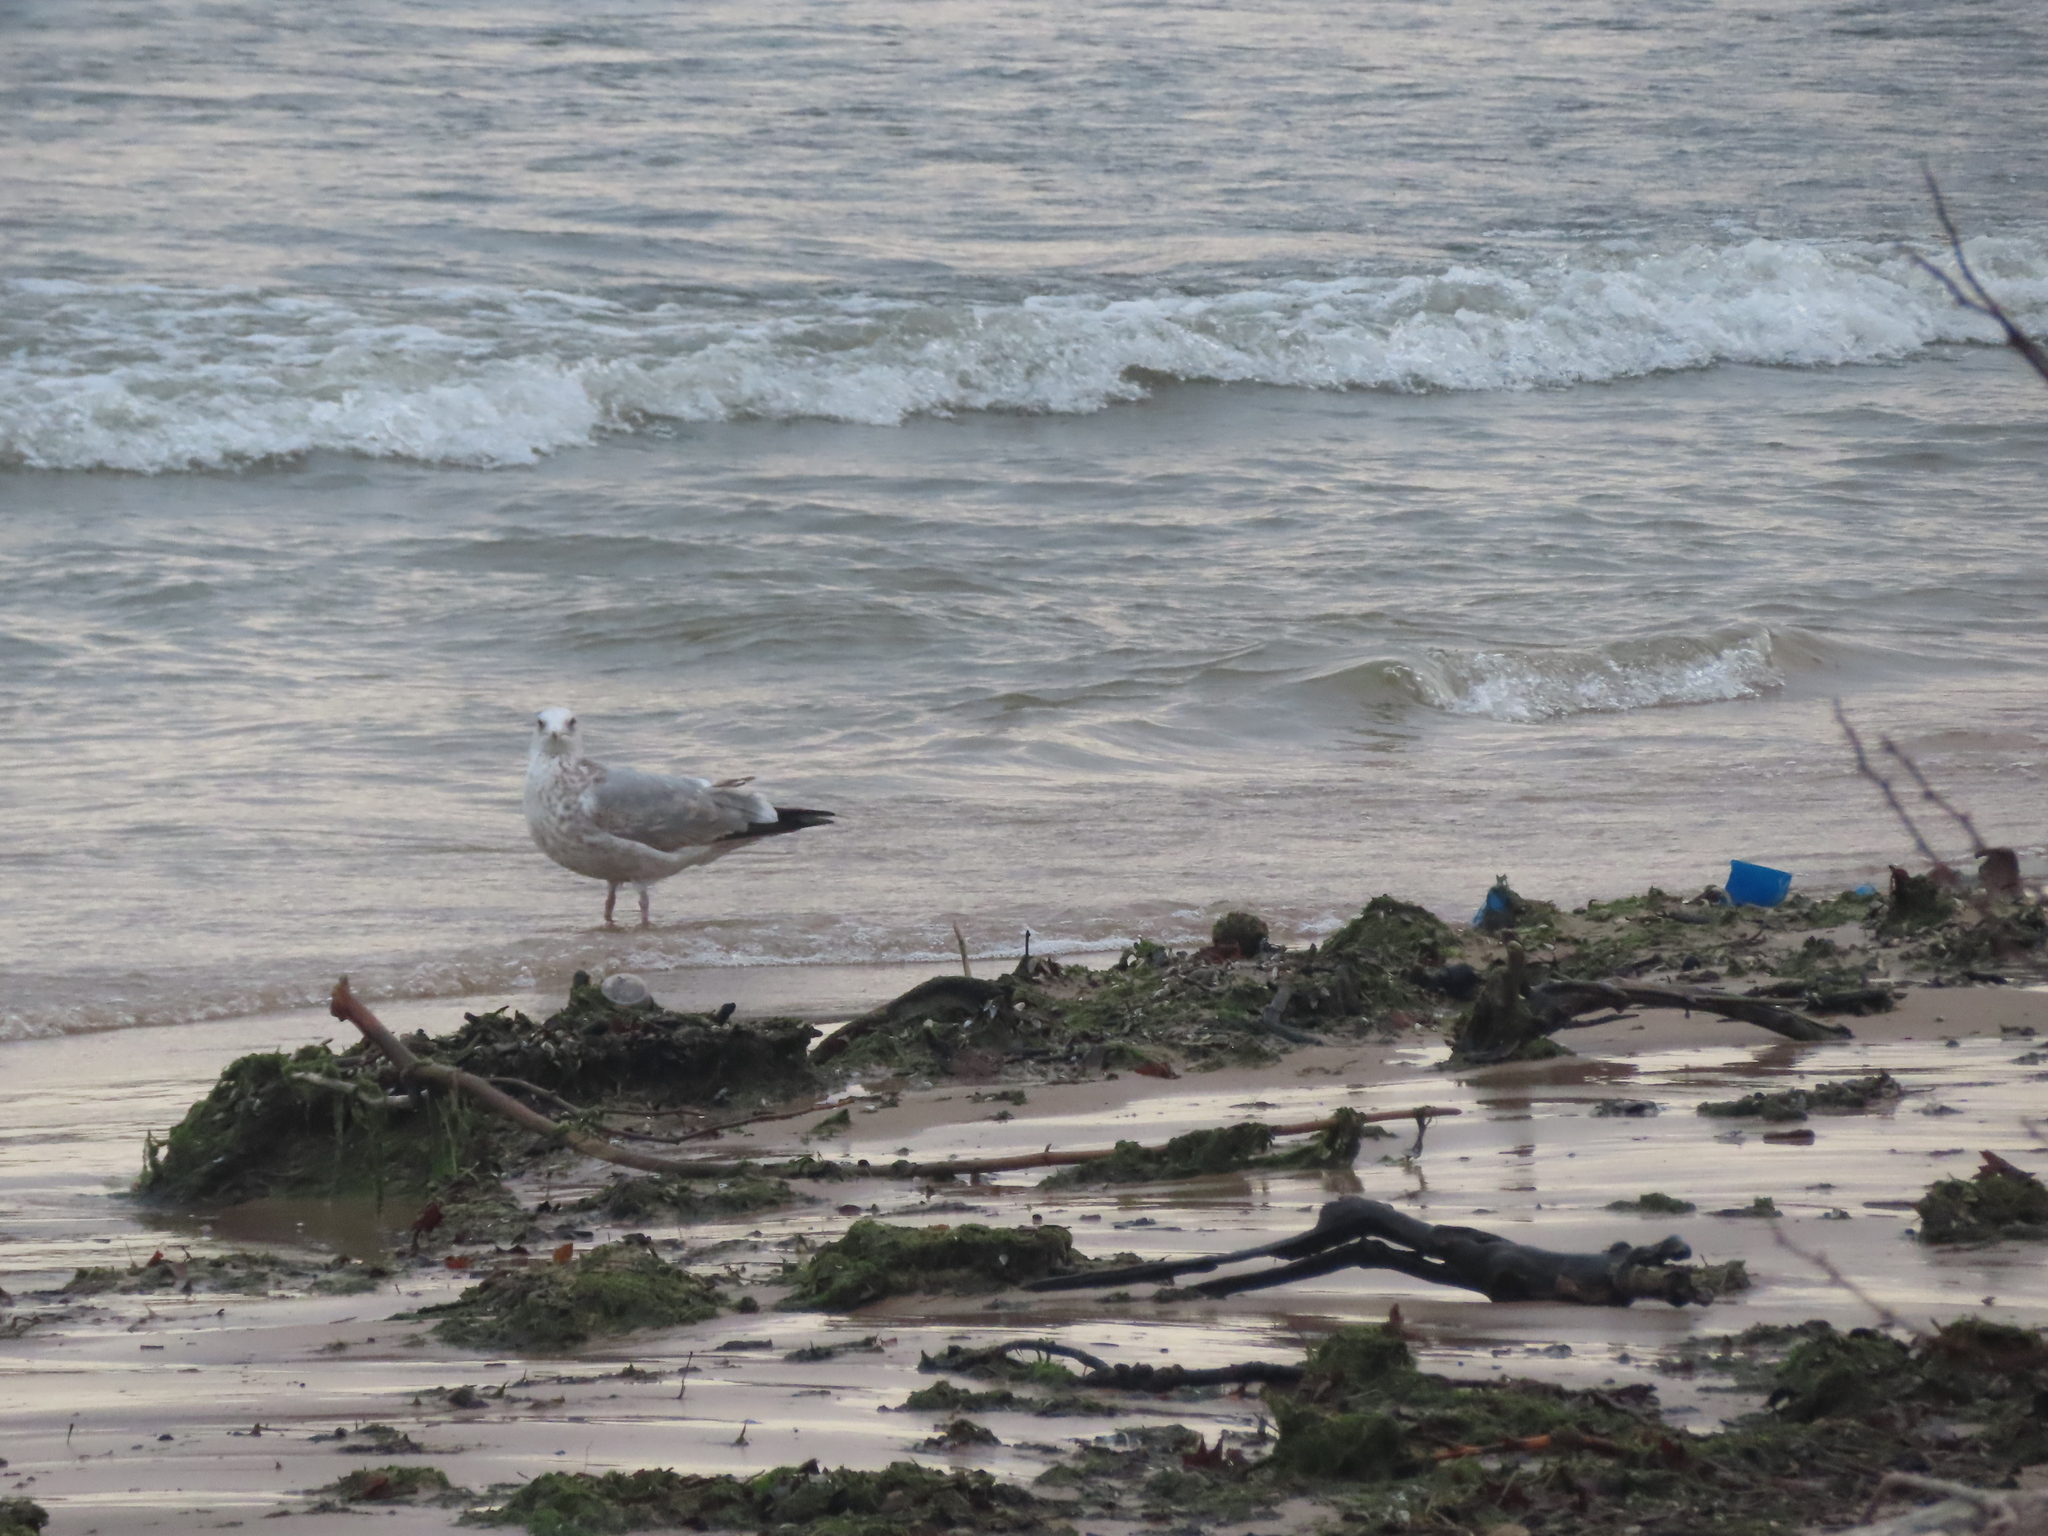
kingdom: Animalia
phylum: Chordata
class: Aves
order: Charadriiformes
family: Laridae
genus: Larus
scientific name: Larus argentatus
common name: Herring gull
